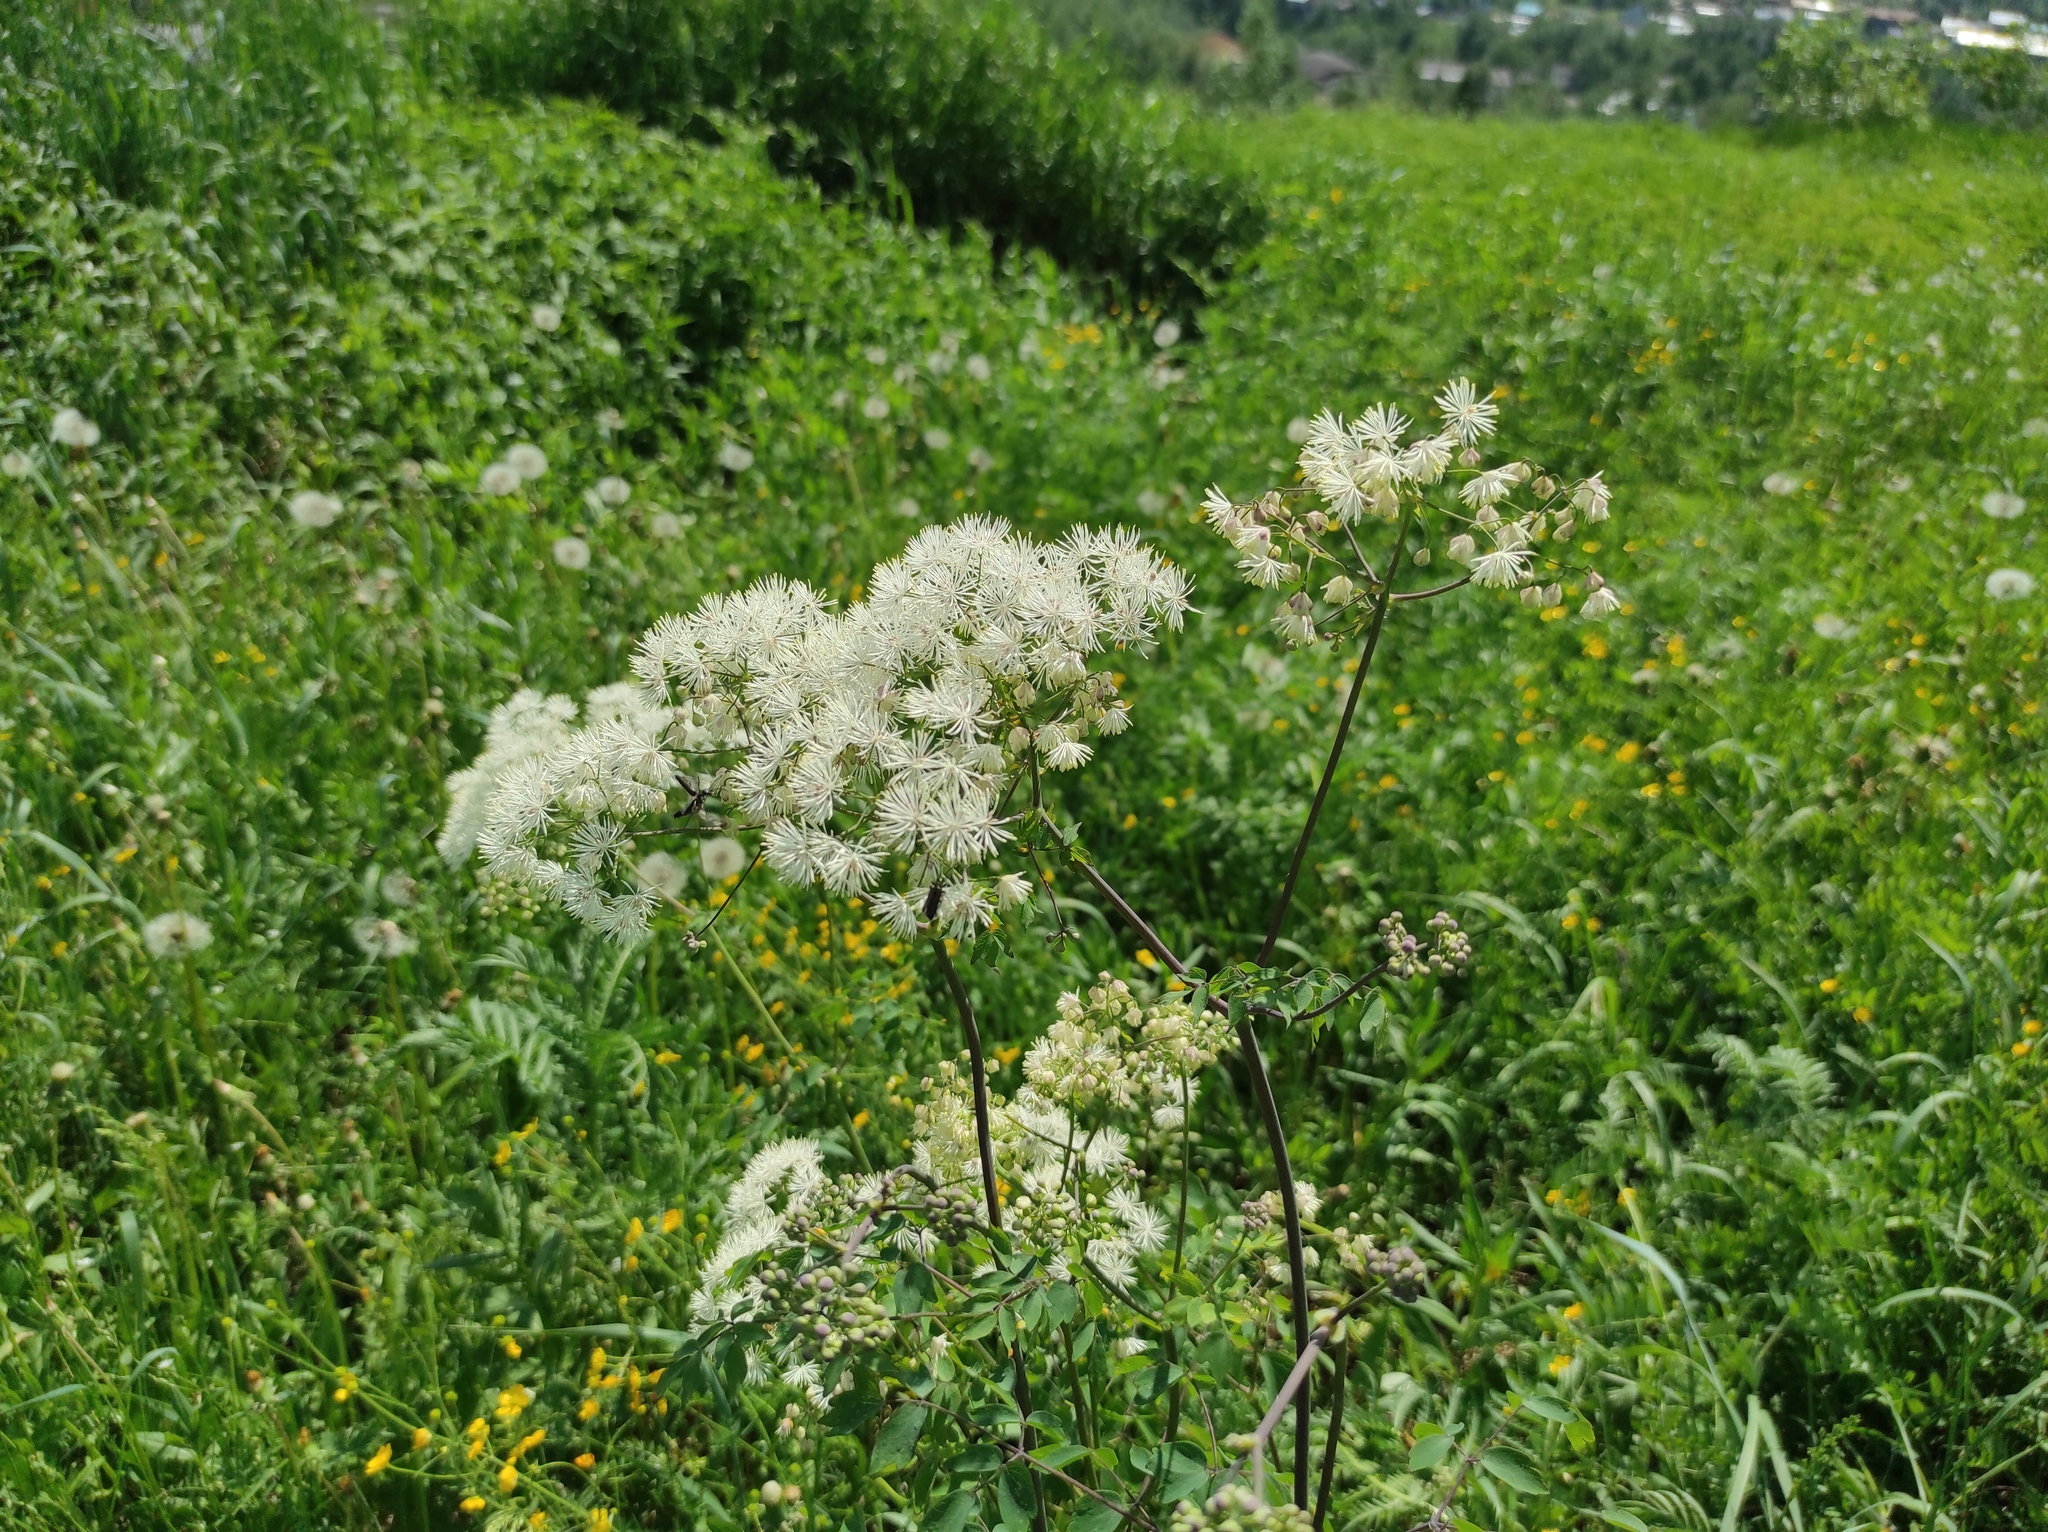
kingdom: Plantae
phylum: Tracheophyta
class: Magnoliopsida
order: Ranunculales
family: Ranunculaceae
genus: Thalictrum
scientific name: Thalictrum aquilegiifolium
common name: French meadow-rue
